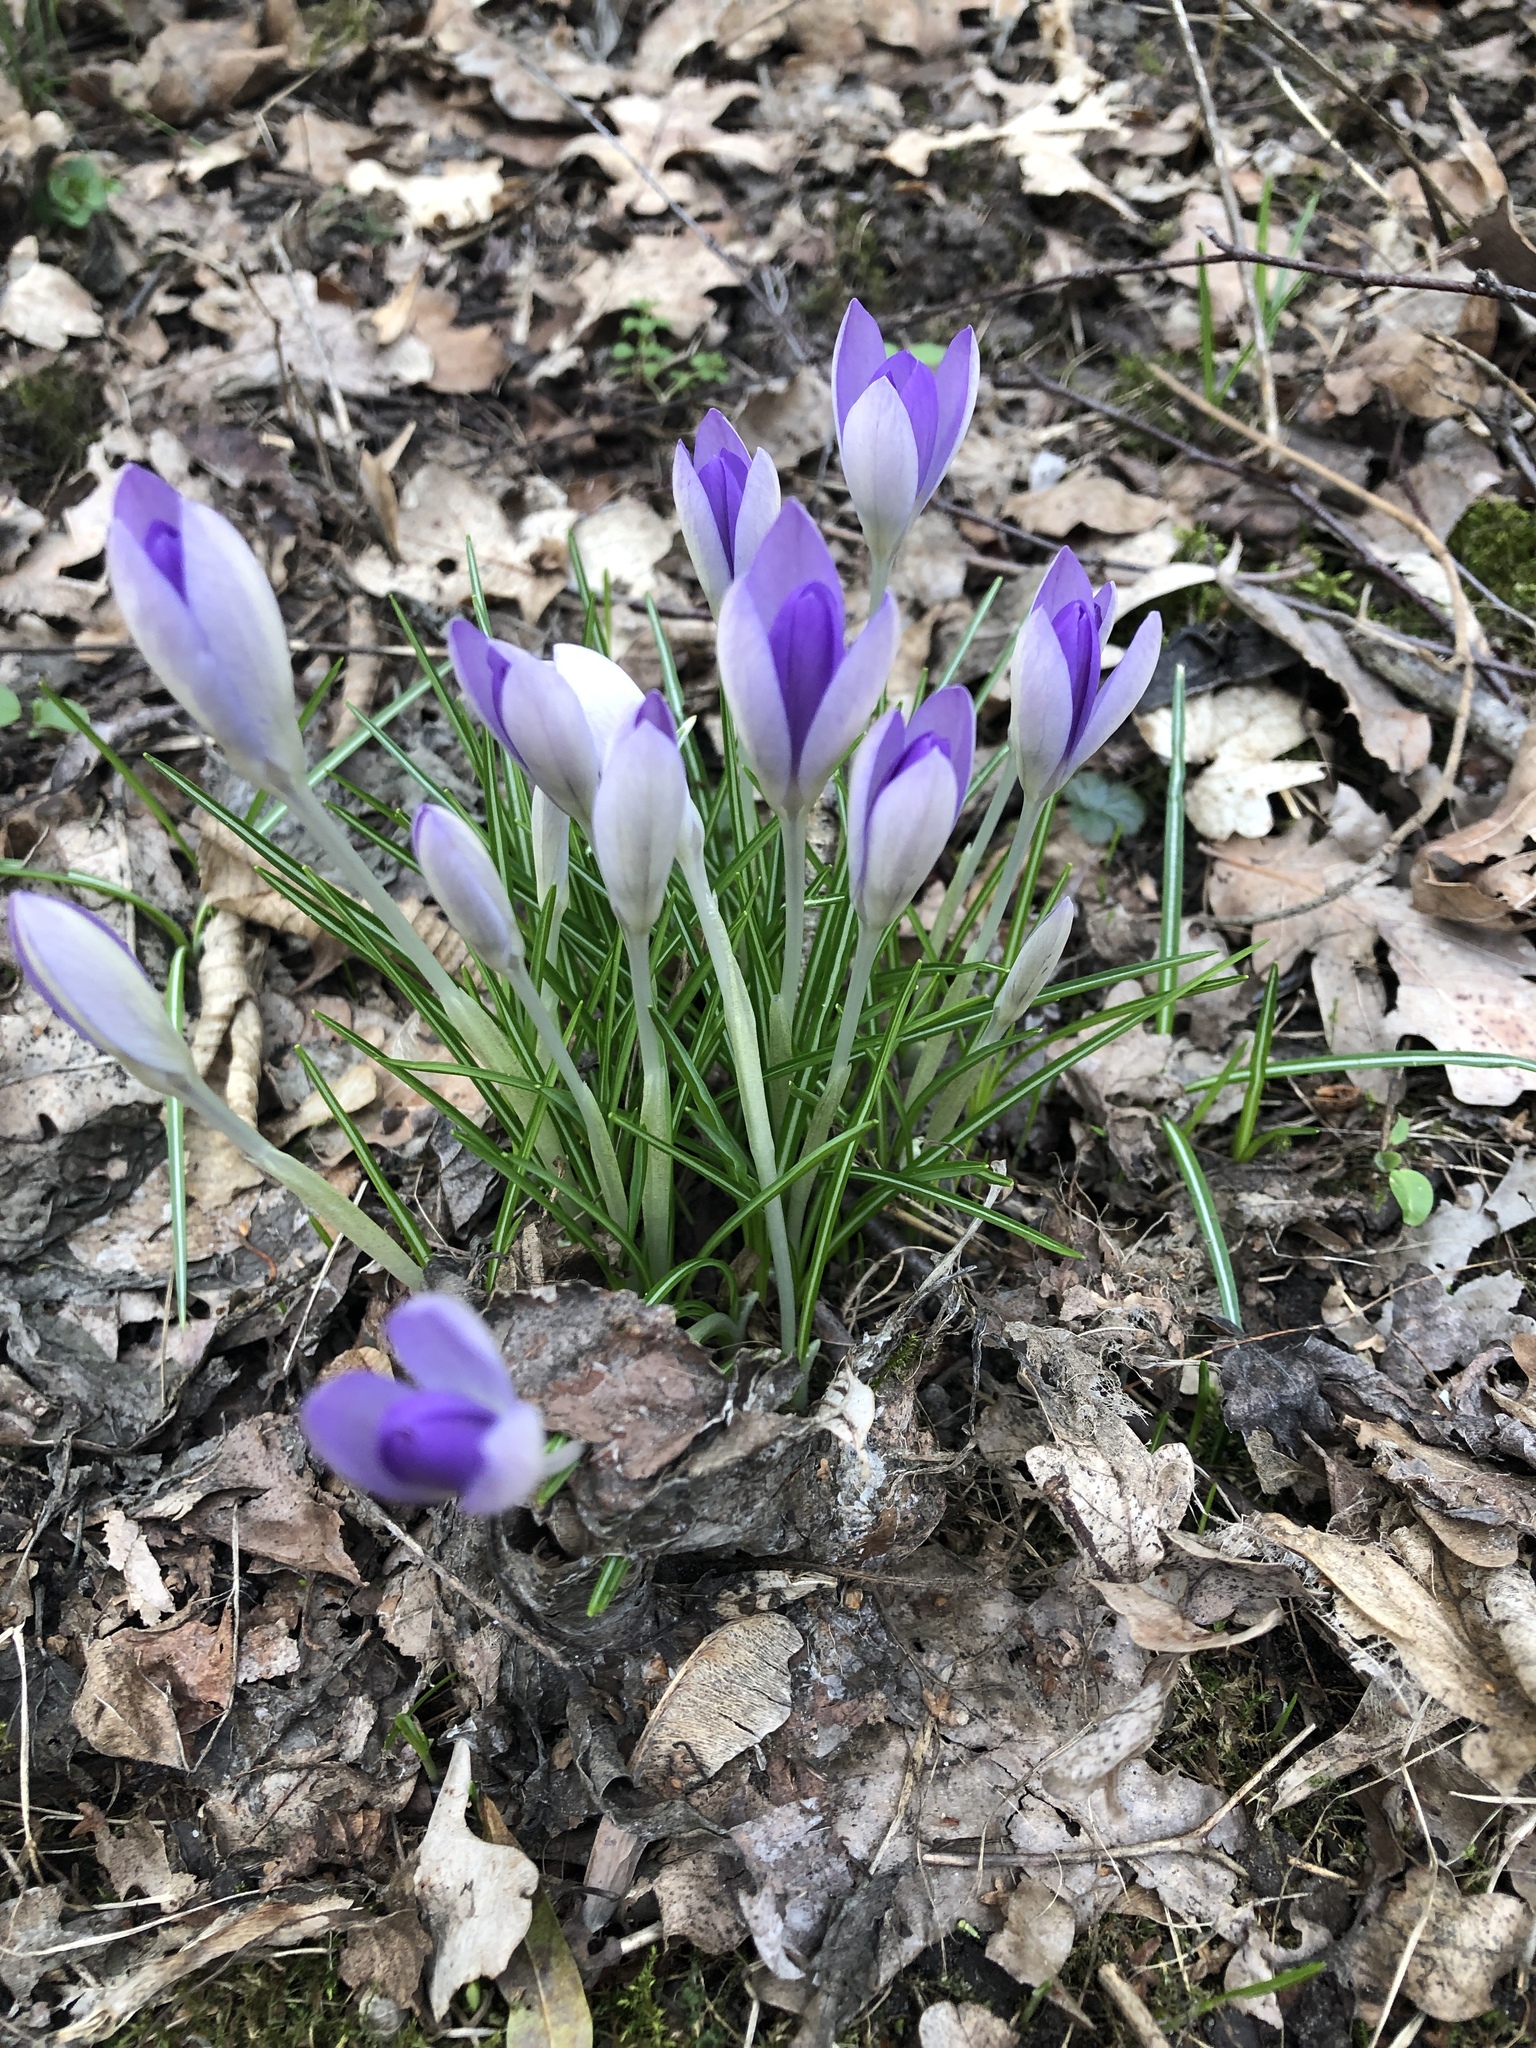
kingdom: Plantae
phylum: Tracheophyta
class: Liliopsida
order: Asparagales
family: Iridaceae
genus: Crocus
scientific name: Crocus tommasinianus
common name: Early crocus
